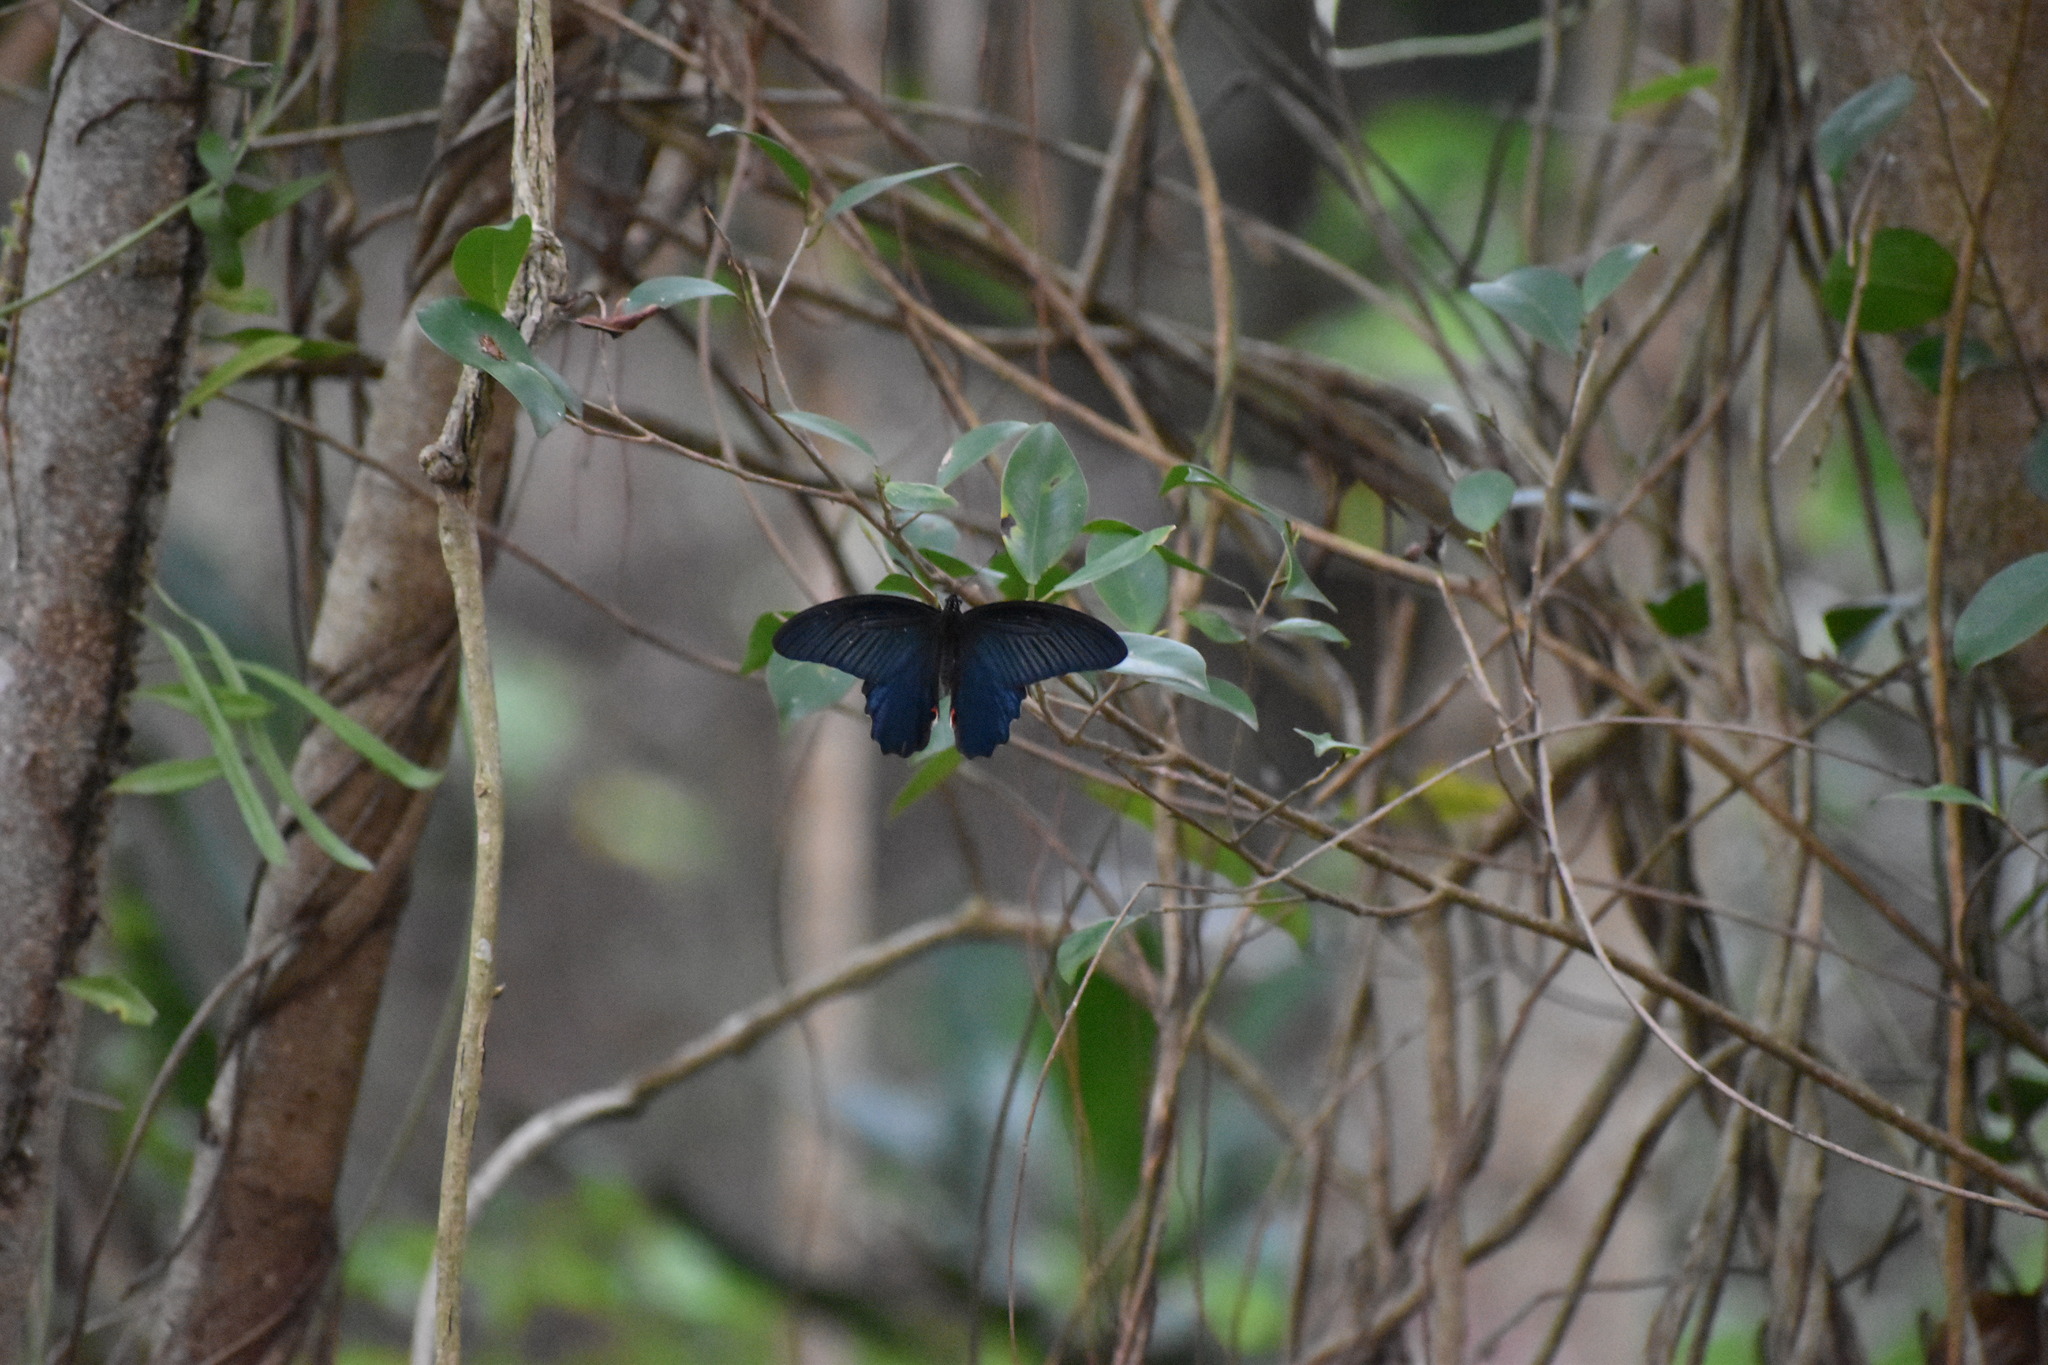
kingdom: Animalia
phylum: Arthropoda
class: Insecta
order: Lepidoptera
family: Papilionidae
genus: Papilio
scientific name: Papilio protenor
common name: Spangle
